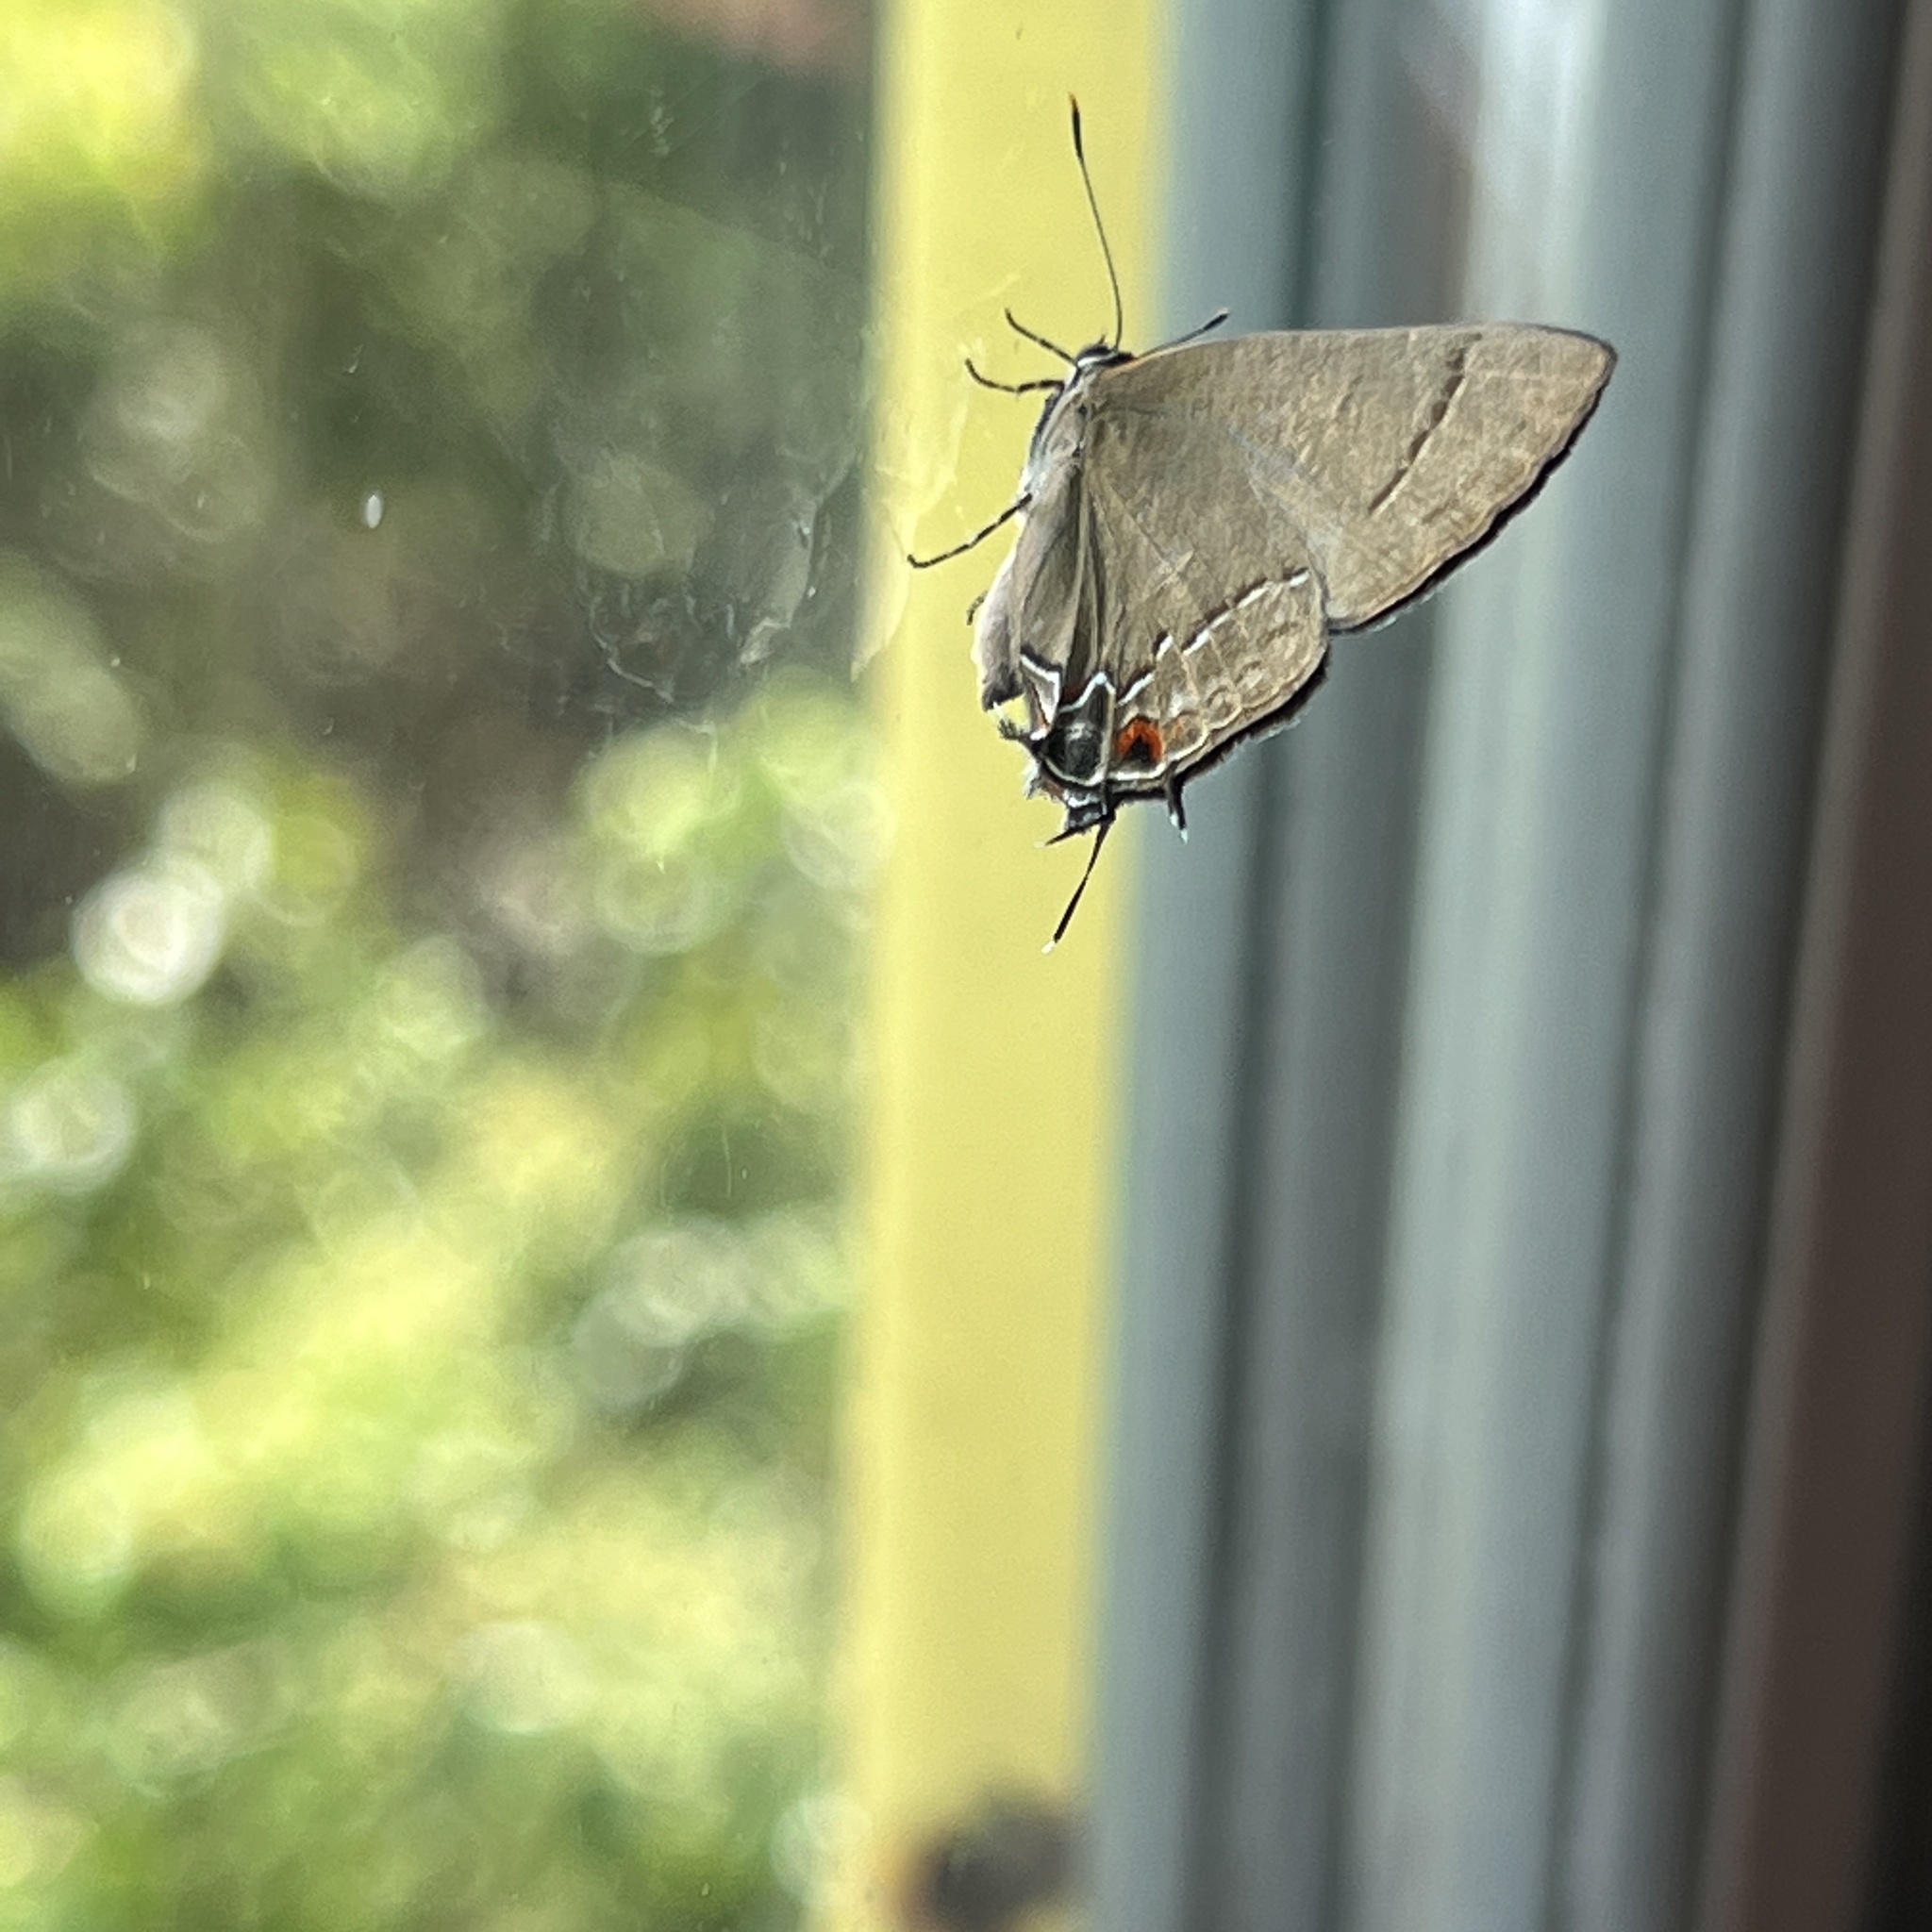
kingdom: Animalia
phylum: Arthropoda
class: Insecta
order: Lepidoptera
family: Lycaenidae
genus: Ziegleria
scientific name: Ziegleria hesperitis
